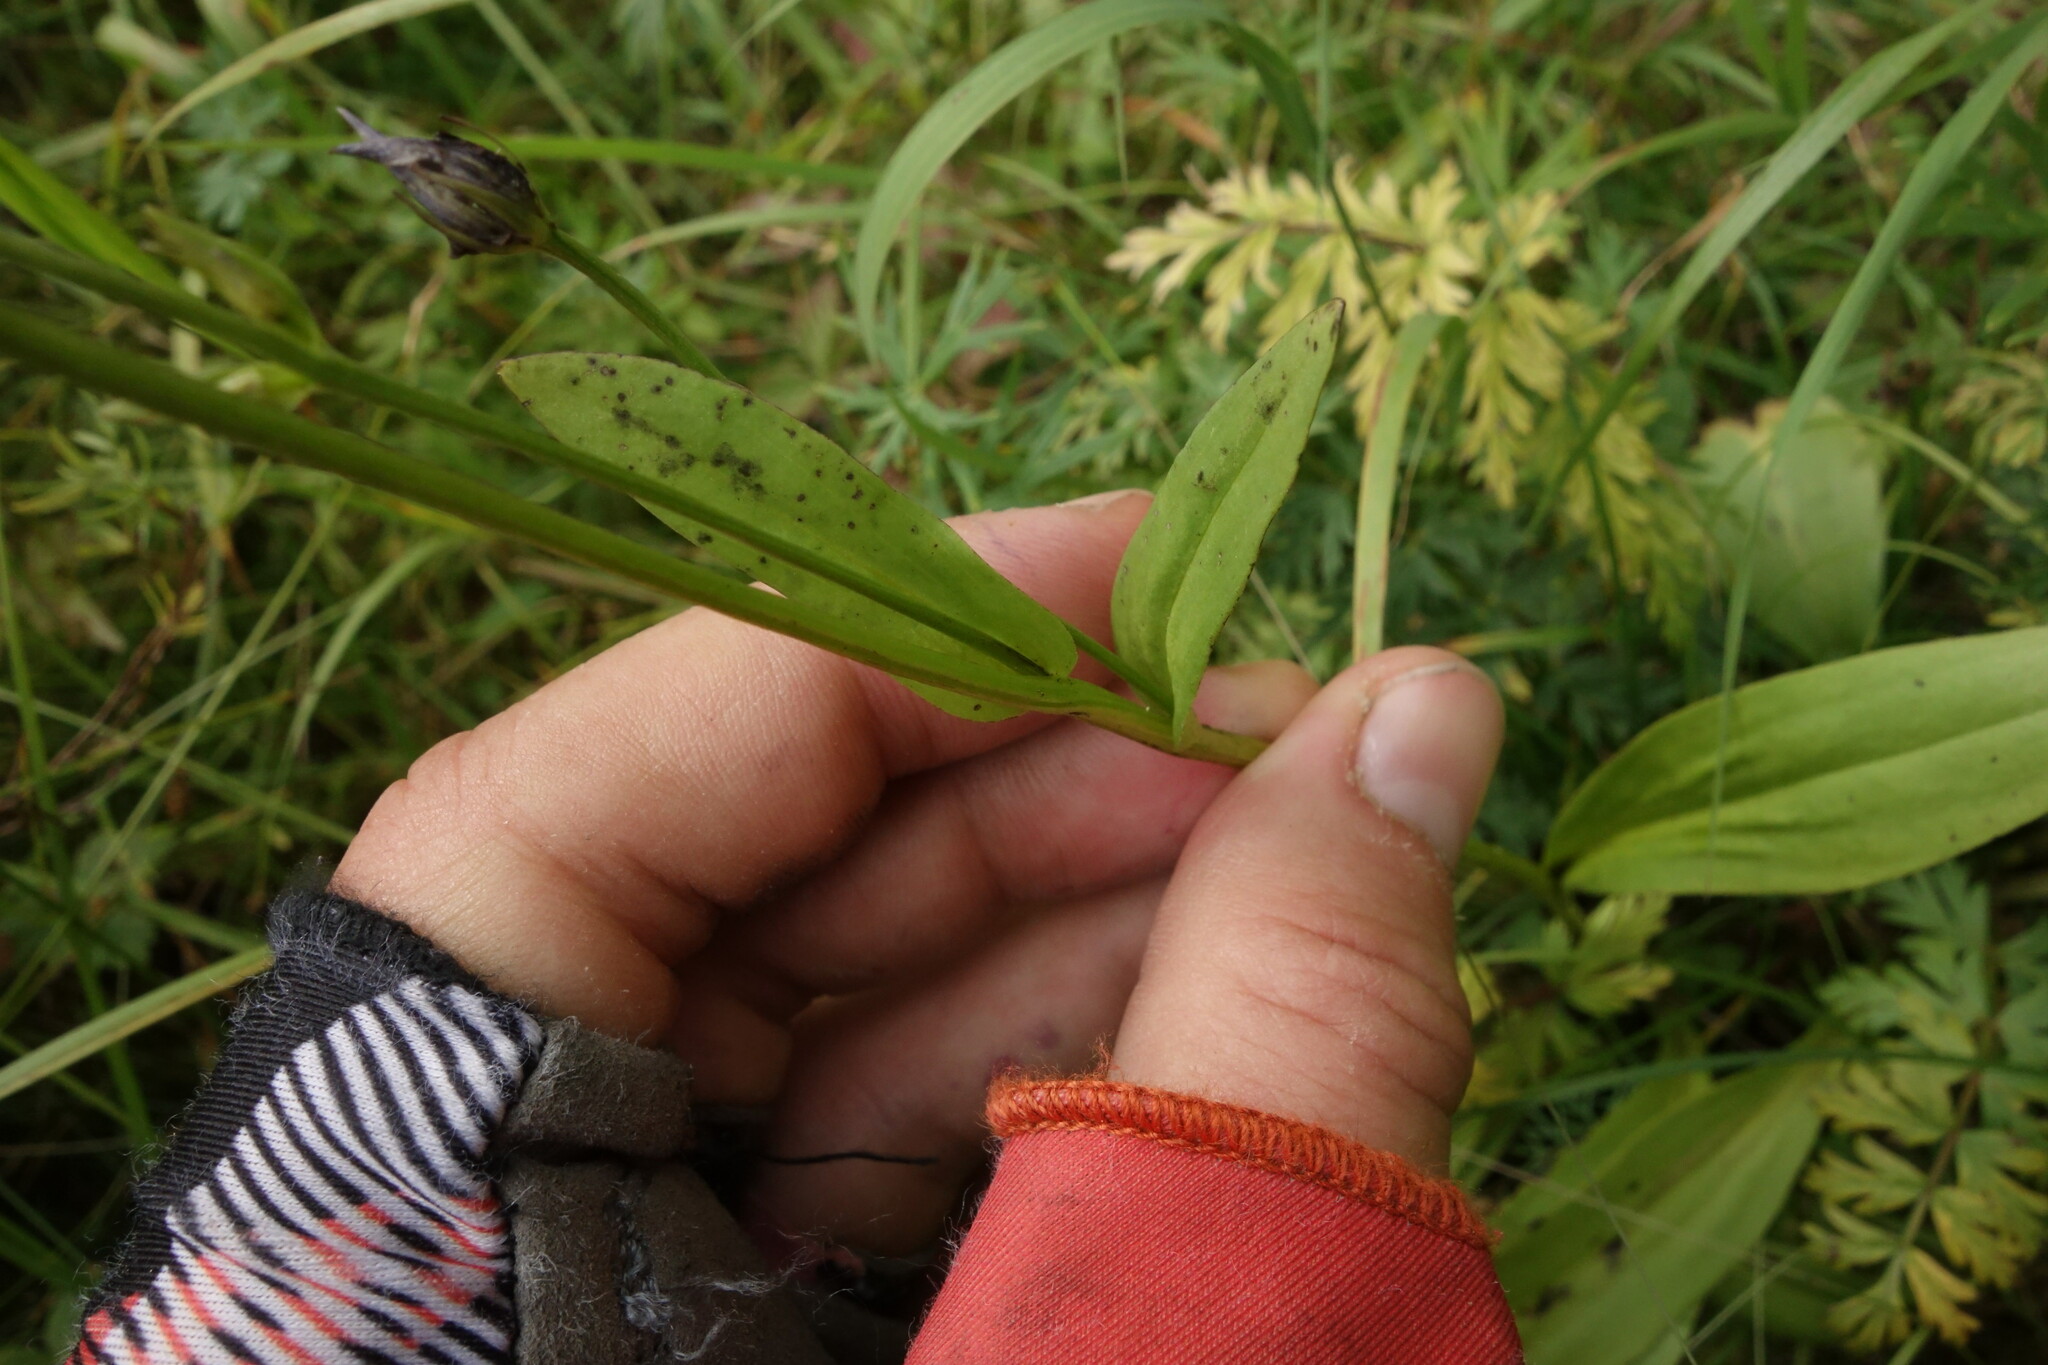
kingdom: Plantae
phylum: Tracheophyta
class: Magnoliopsida
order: Gentianales
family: Gentianaceae
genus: Swertia
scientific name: Swertia obtusa
